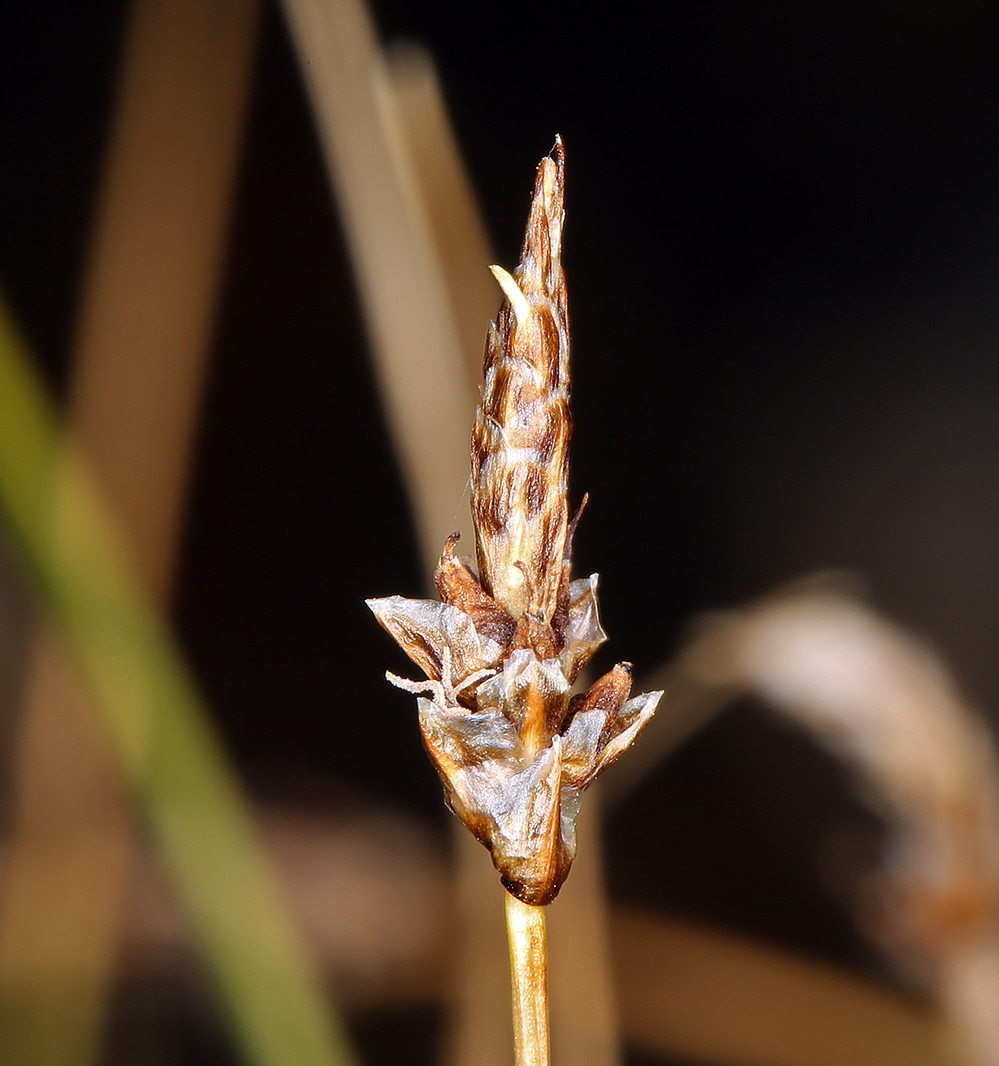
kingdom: Plantae
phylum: Tracheophyta
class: Liliopsida
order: Poales
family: Cyperaceae
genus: Carex
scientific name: Carex filifolia
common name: Threadleaf sedge
